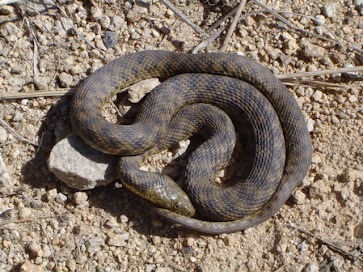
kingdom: Animalia
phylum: Chordata
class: Squamata
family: Colubridae
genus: Natrix
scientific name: Natrix tessellata
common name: Dice snake
